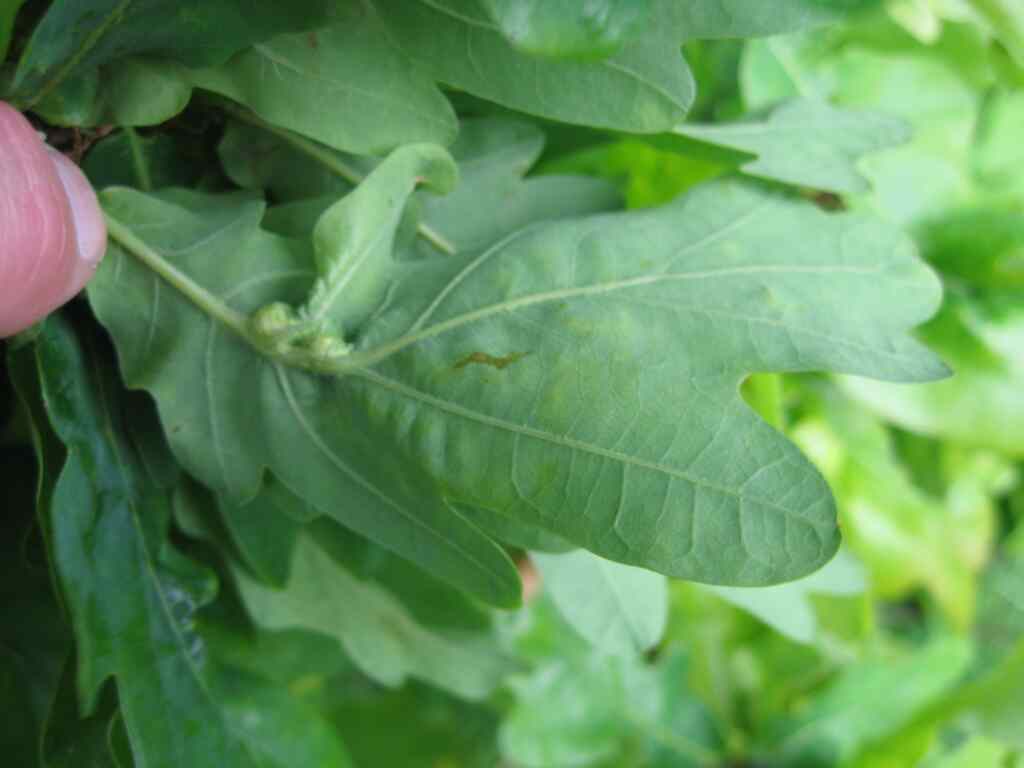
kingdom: Animalia
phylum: Arthropoda
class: Insecta
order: Hymenoptera
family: Cynipidae
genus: Andricus
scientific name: Andricus curvator
